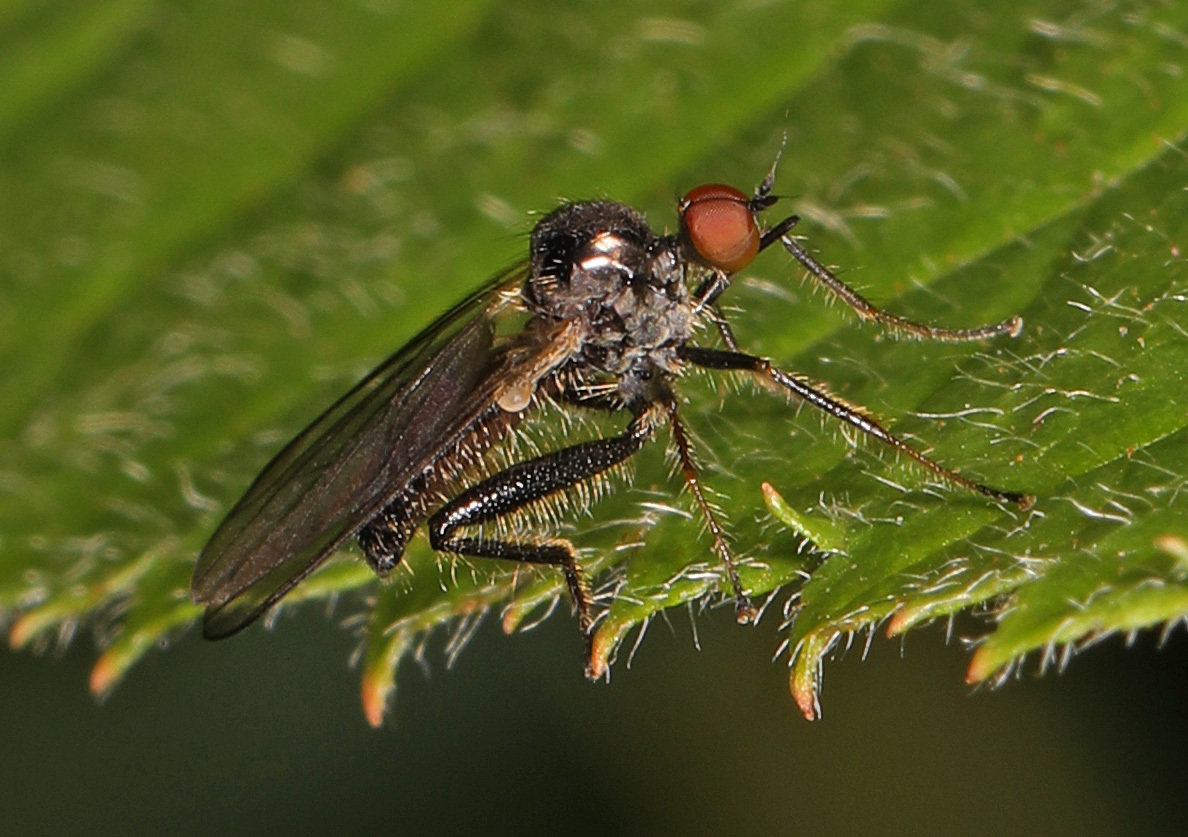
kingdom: Animalia
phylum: Arthropoda
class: Insecta
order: Diptera
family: Hybotidae
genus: Hybos
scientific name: Hybos reversus
